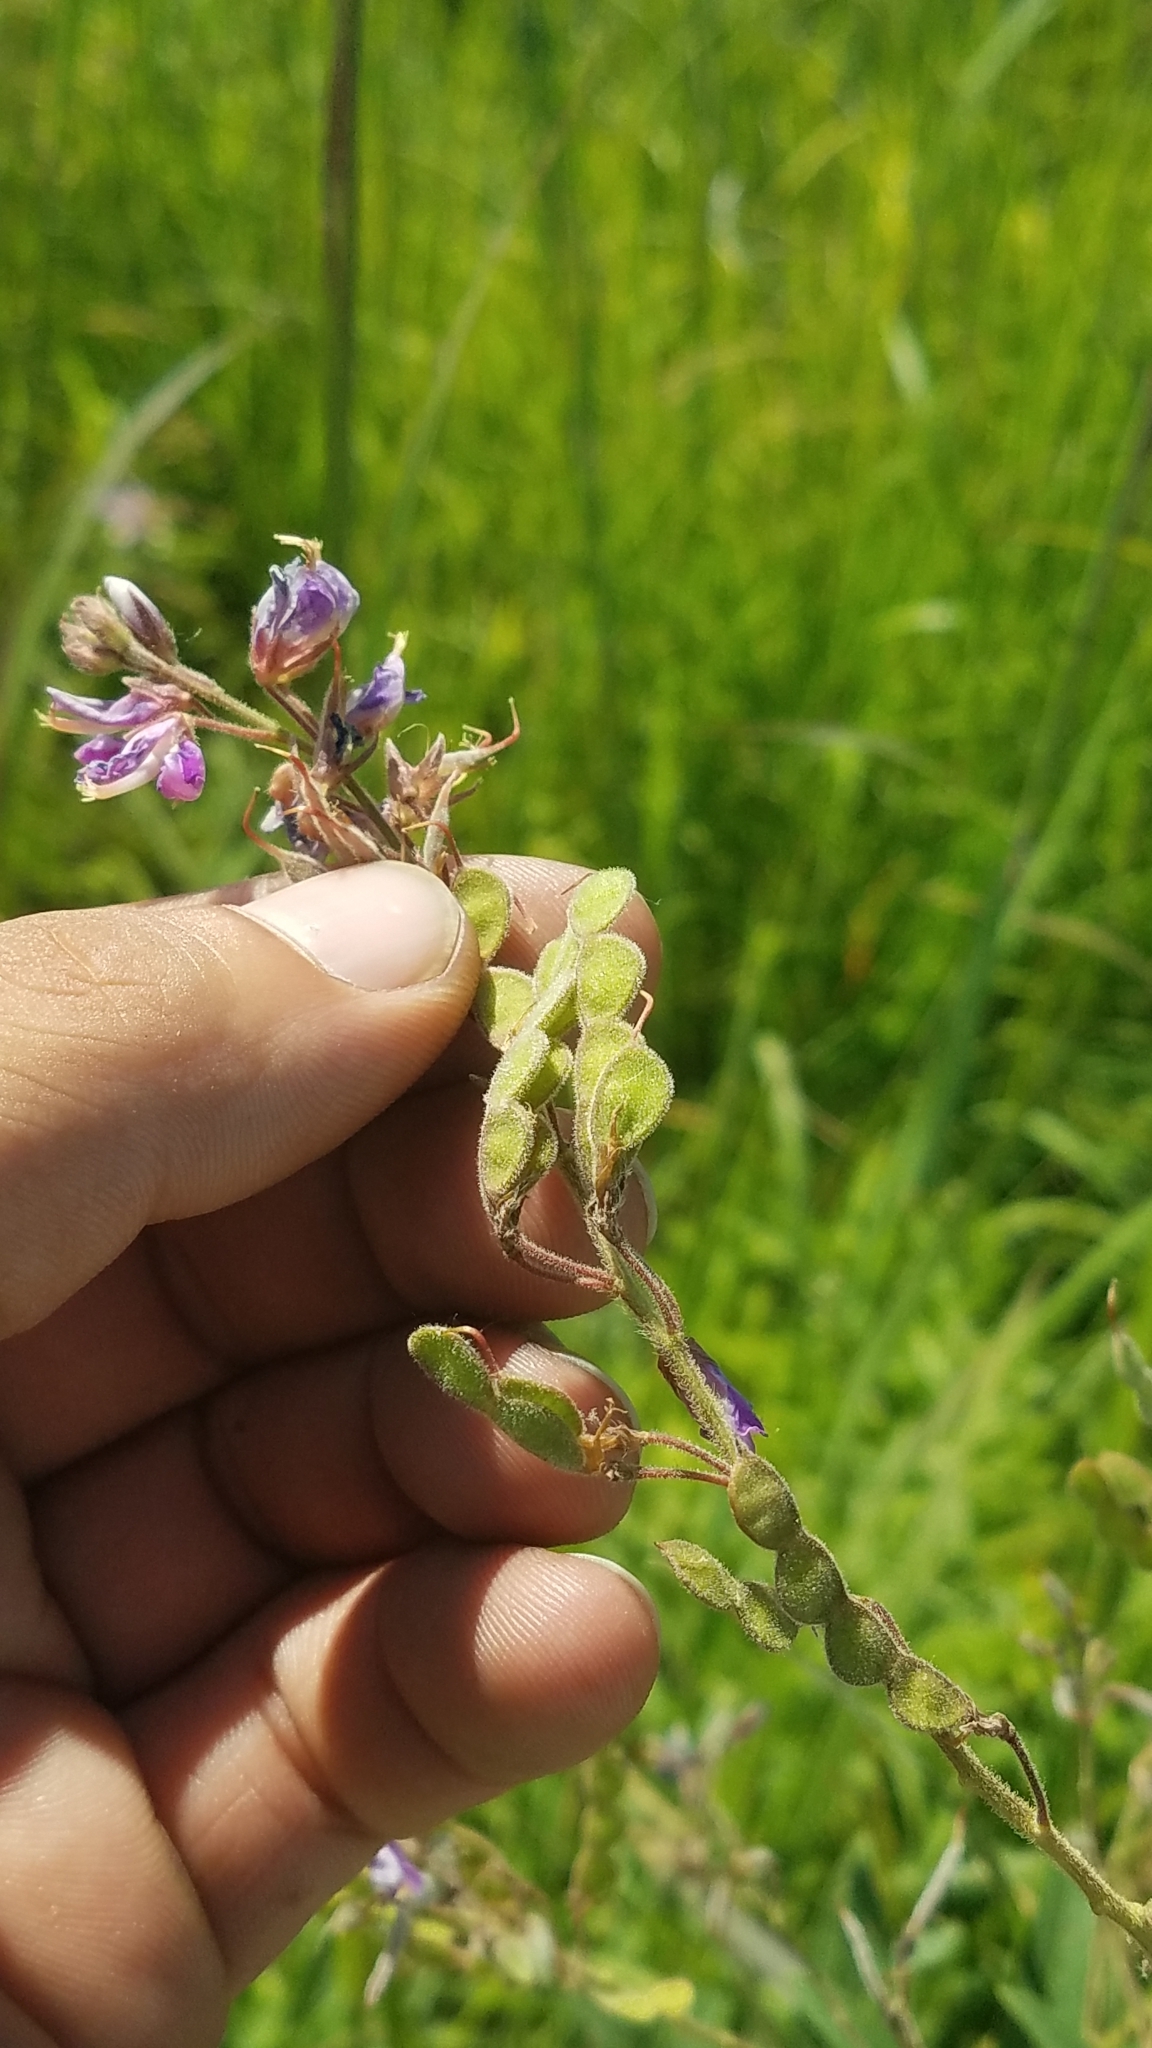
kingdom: Plantae
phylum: Tracheophyta
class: Magnoliopsida
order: Fabales
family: Fabaceae
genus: Desmodium
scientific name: Desmodium canadense
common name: Canada tick-trefoil
